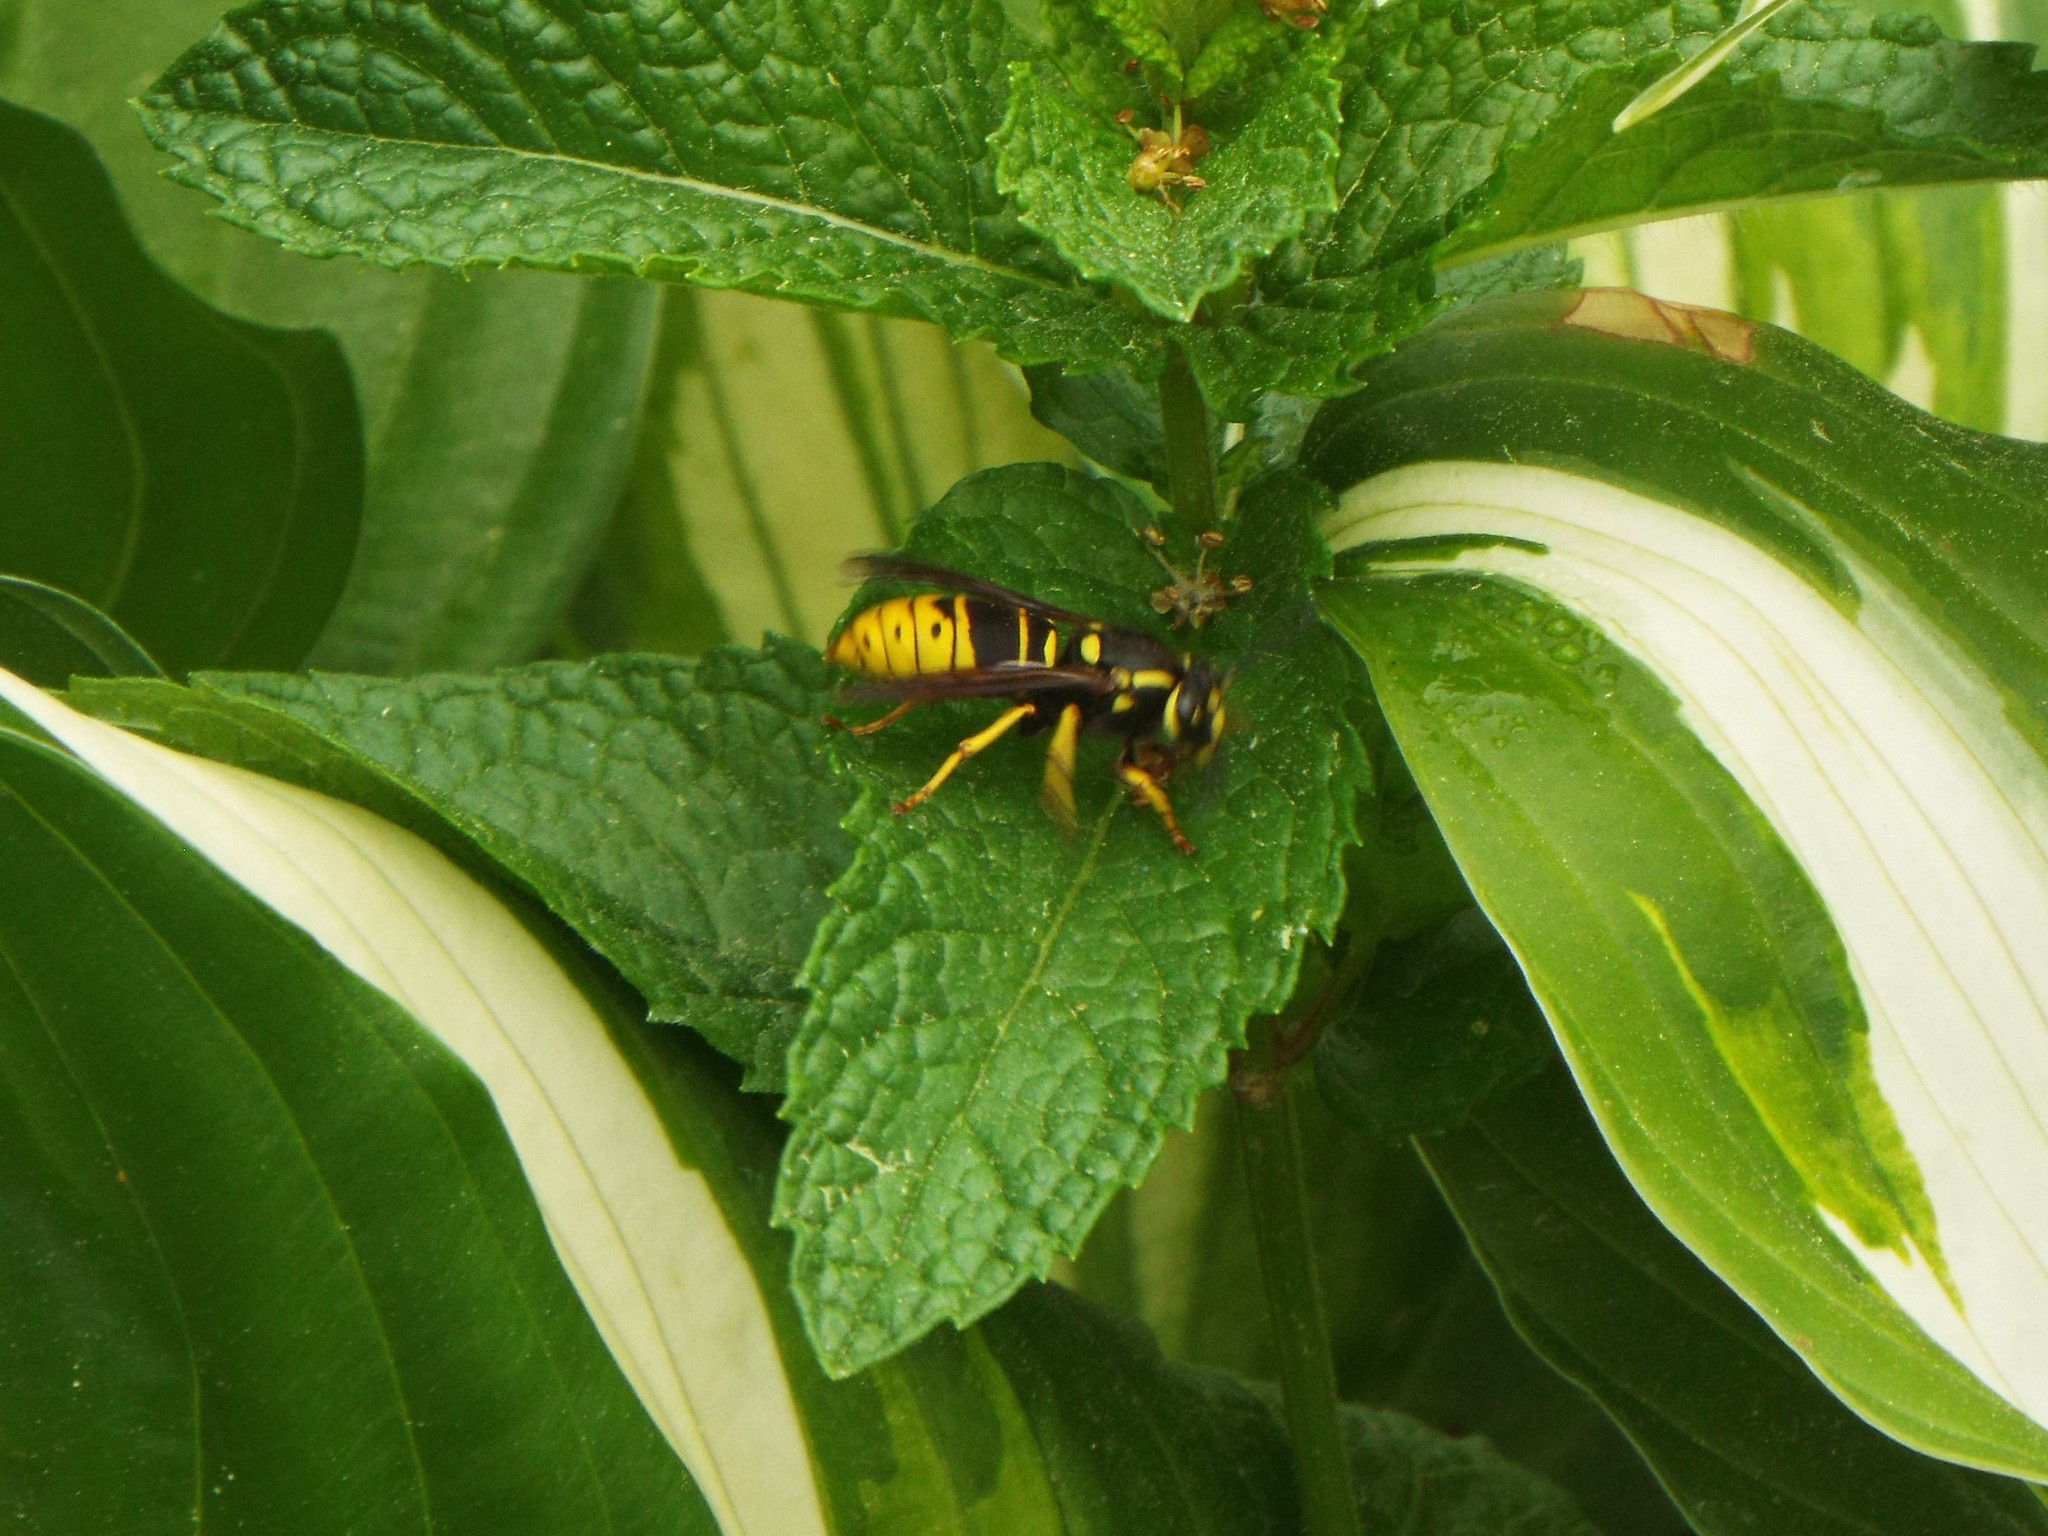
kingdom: Animalia
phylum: Arthropoda
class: Insecta
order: Hymenoptera
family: Vespidae
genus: Vespula
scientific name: Vespula vidua
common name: Widow yellowjacket
